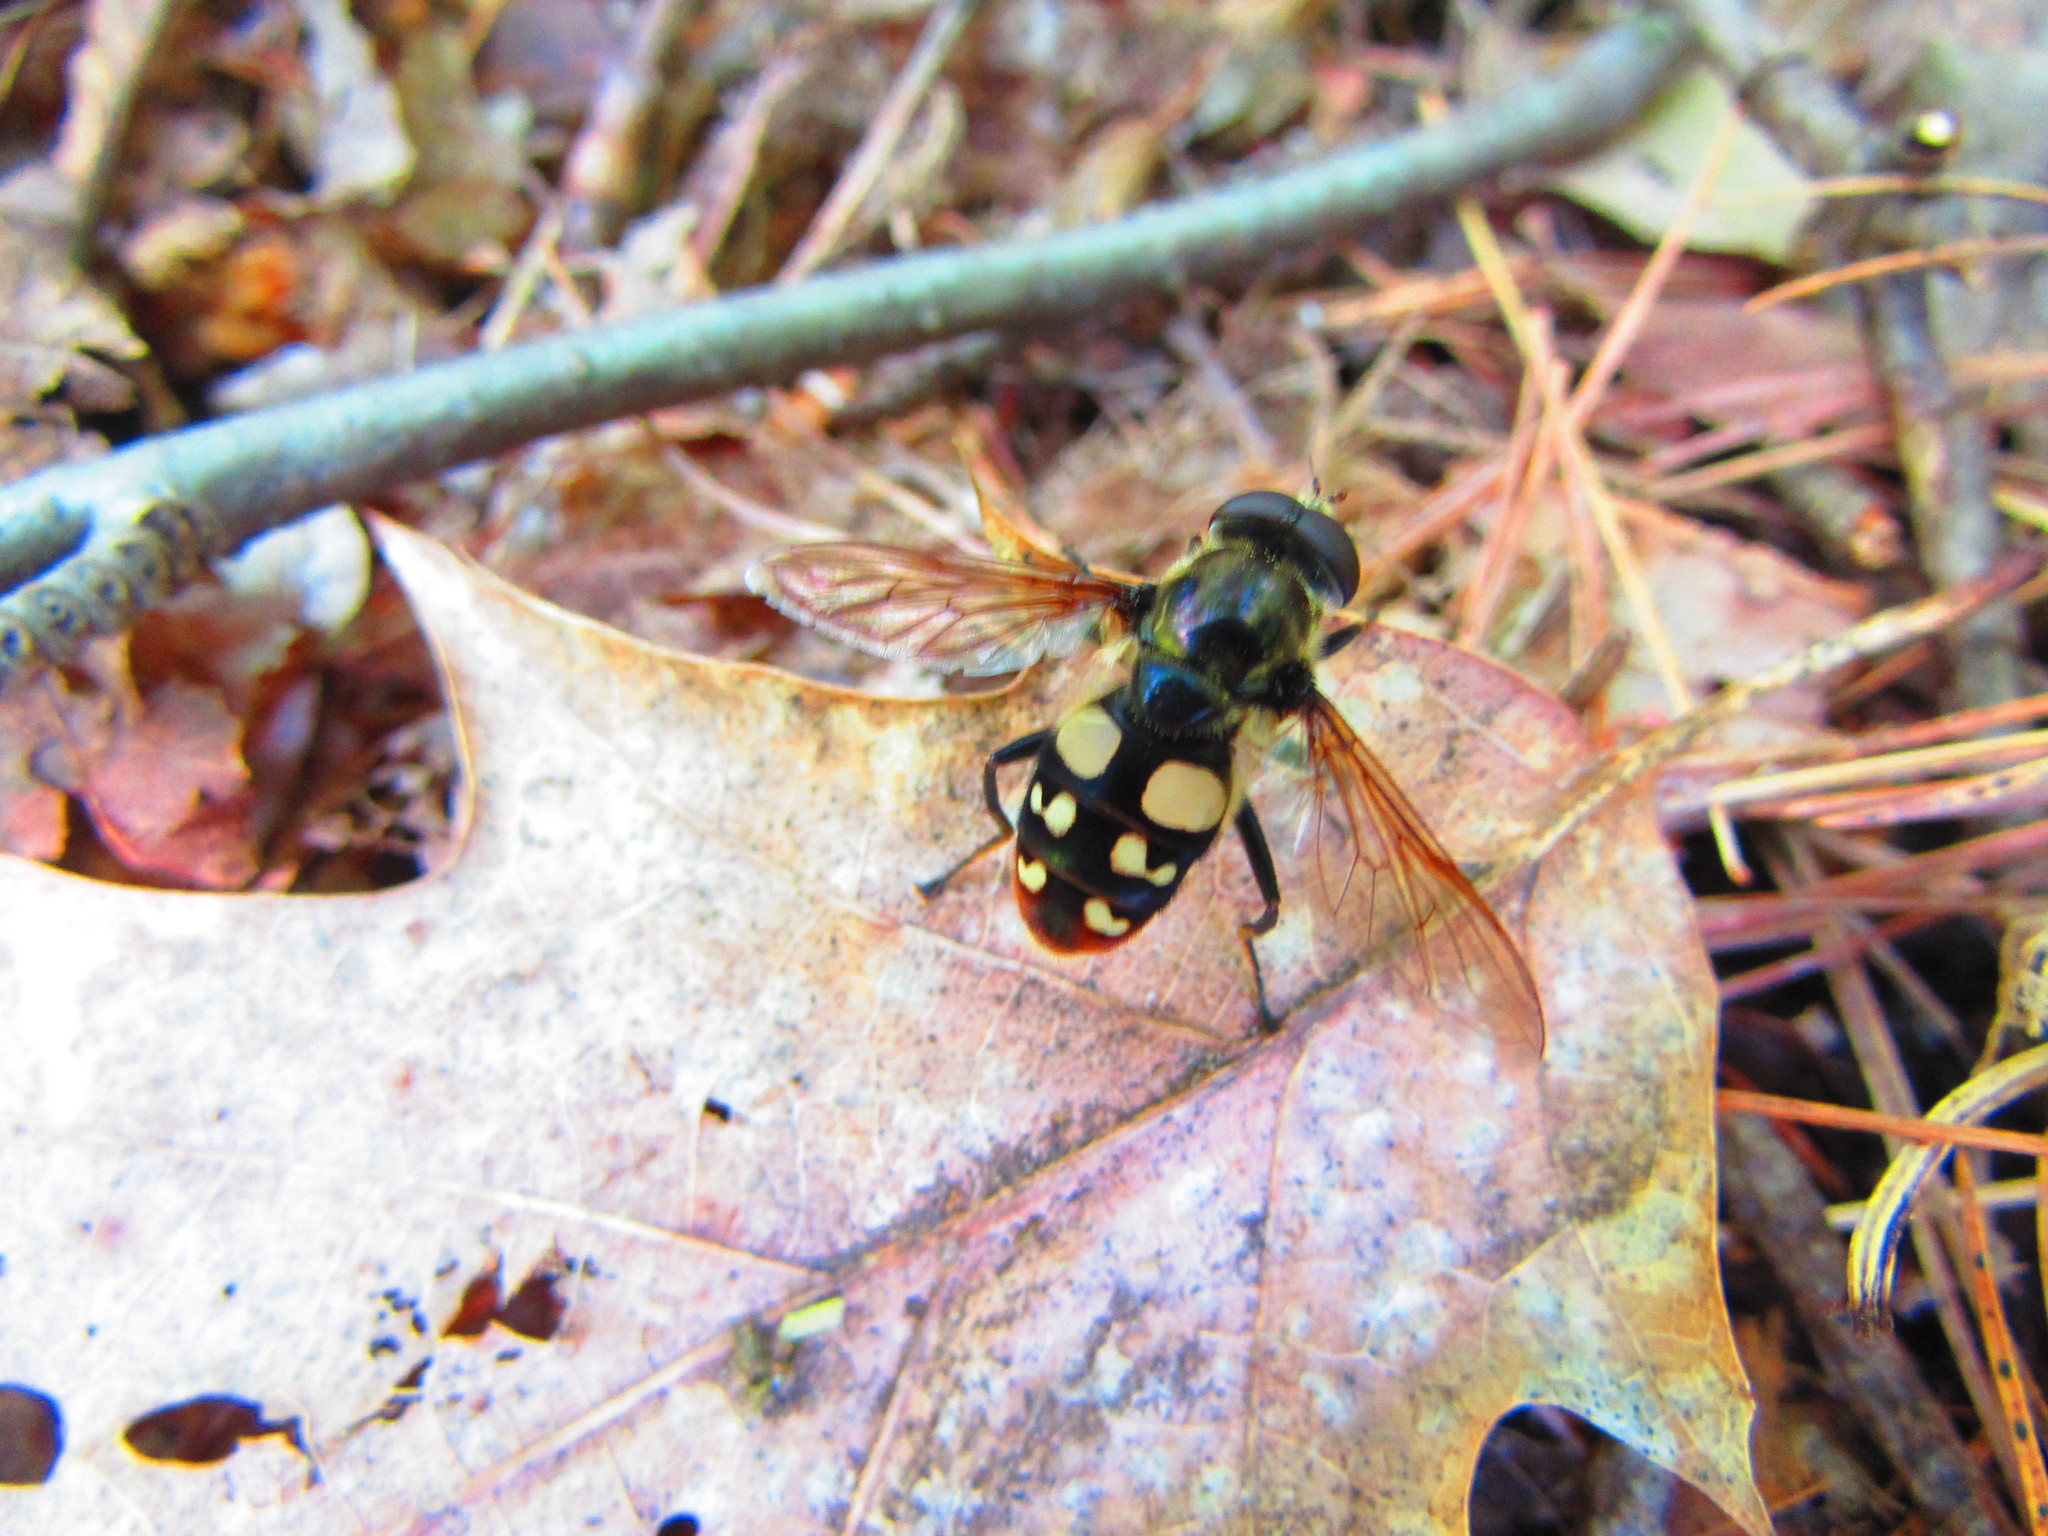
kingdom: Animalia
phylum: Arthropoda
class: Insecta
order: Diptera
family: Syrphidae
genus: Sericomyia
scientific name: Sericomyia lata
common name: White-spotted pond fly
